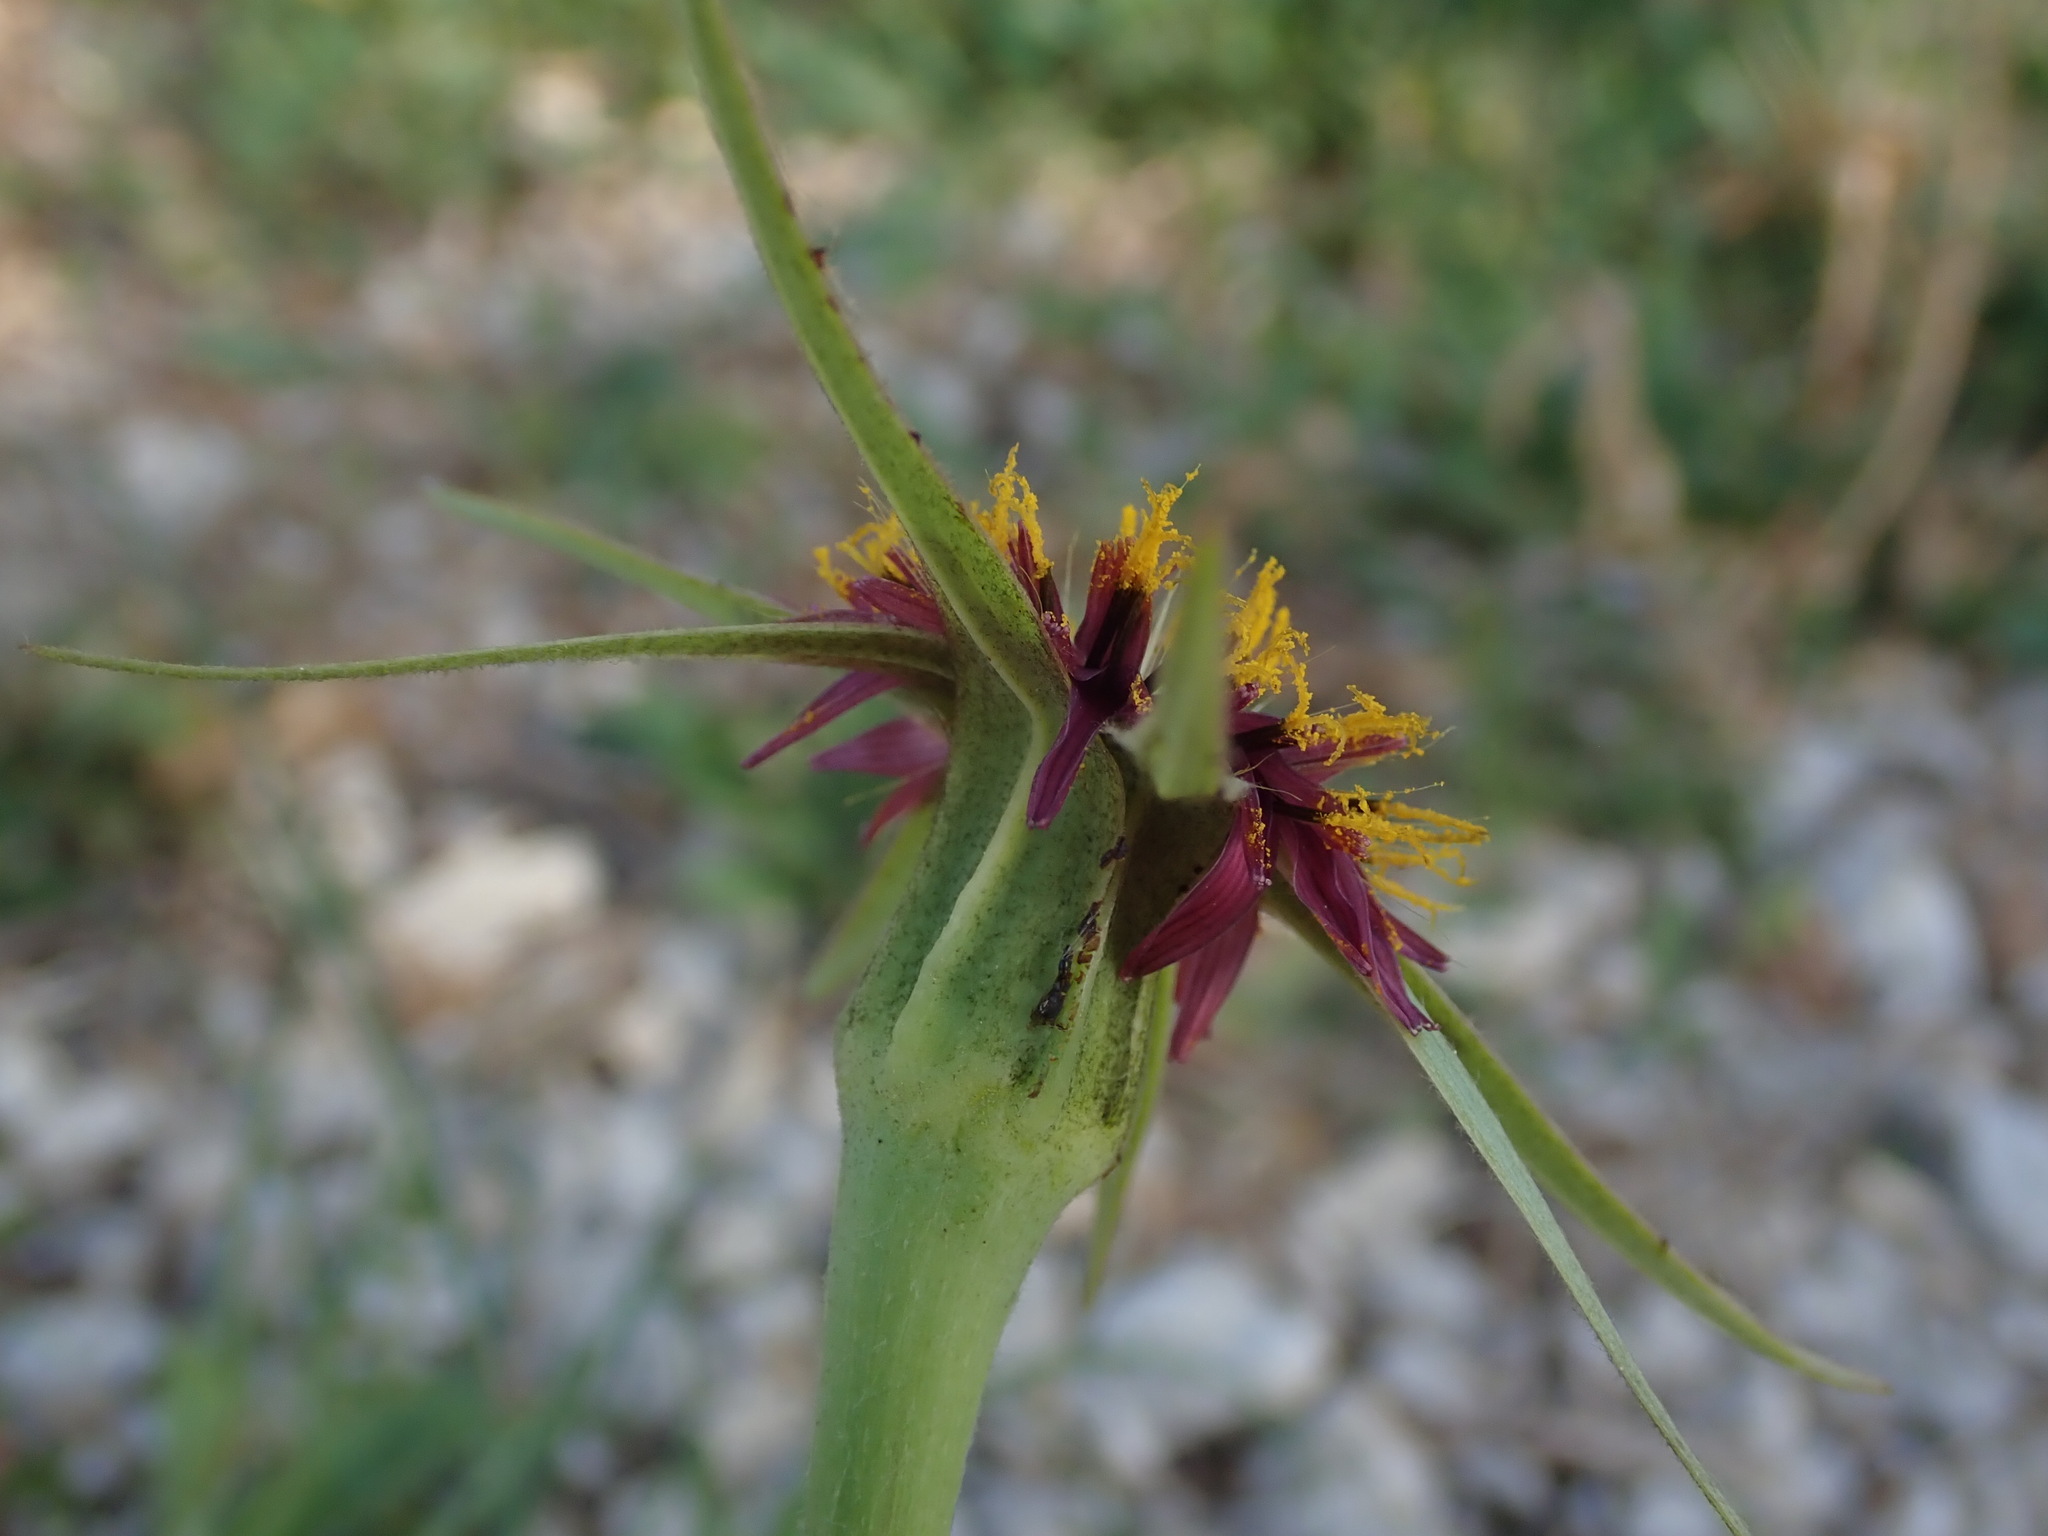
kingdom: Plantae
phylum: Tracheophyta
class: Magnoliopsida
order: Asterales
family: Asteraceae
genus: Tragopogon
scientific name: Tragopogon porrifolius
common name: Salsify
